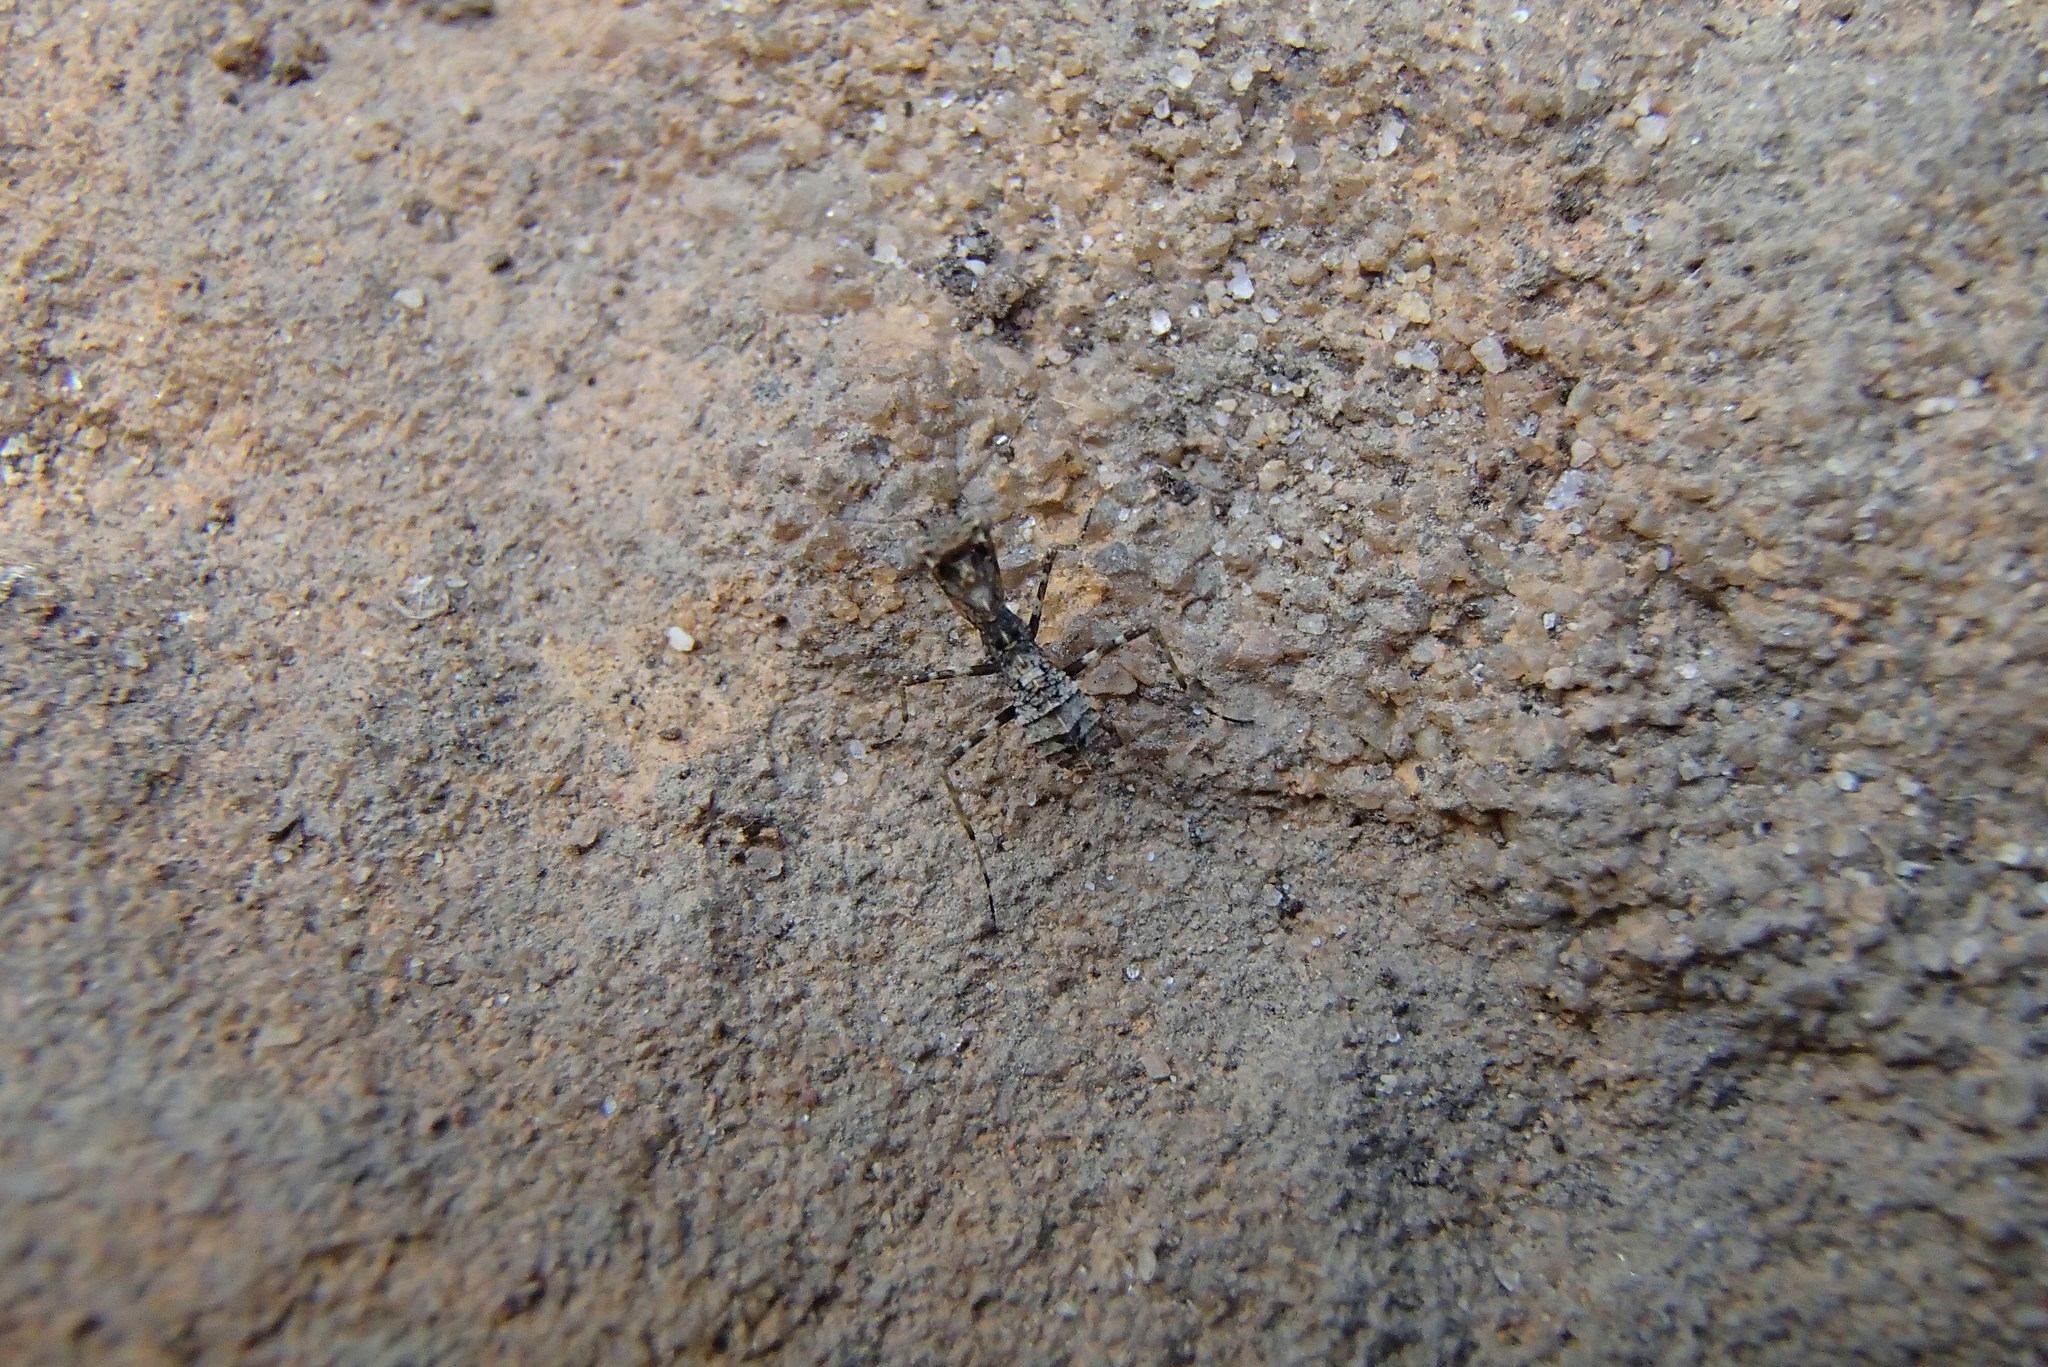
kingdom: Animalia
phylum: Arthropoda
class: Insecta
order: Mantodea
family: Nanomantidae
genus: Paraoxypilus
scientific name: Paraoxypilus tasmaniensis
